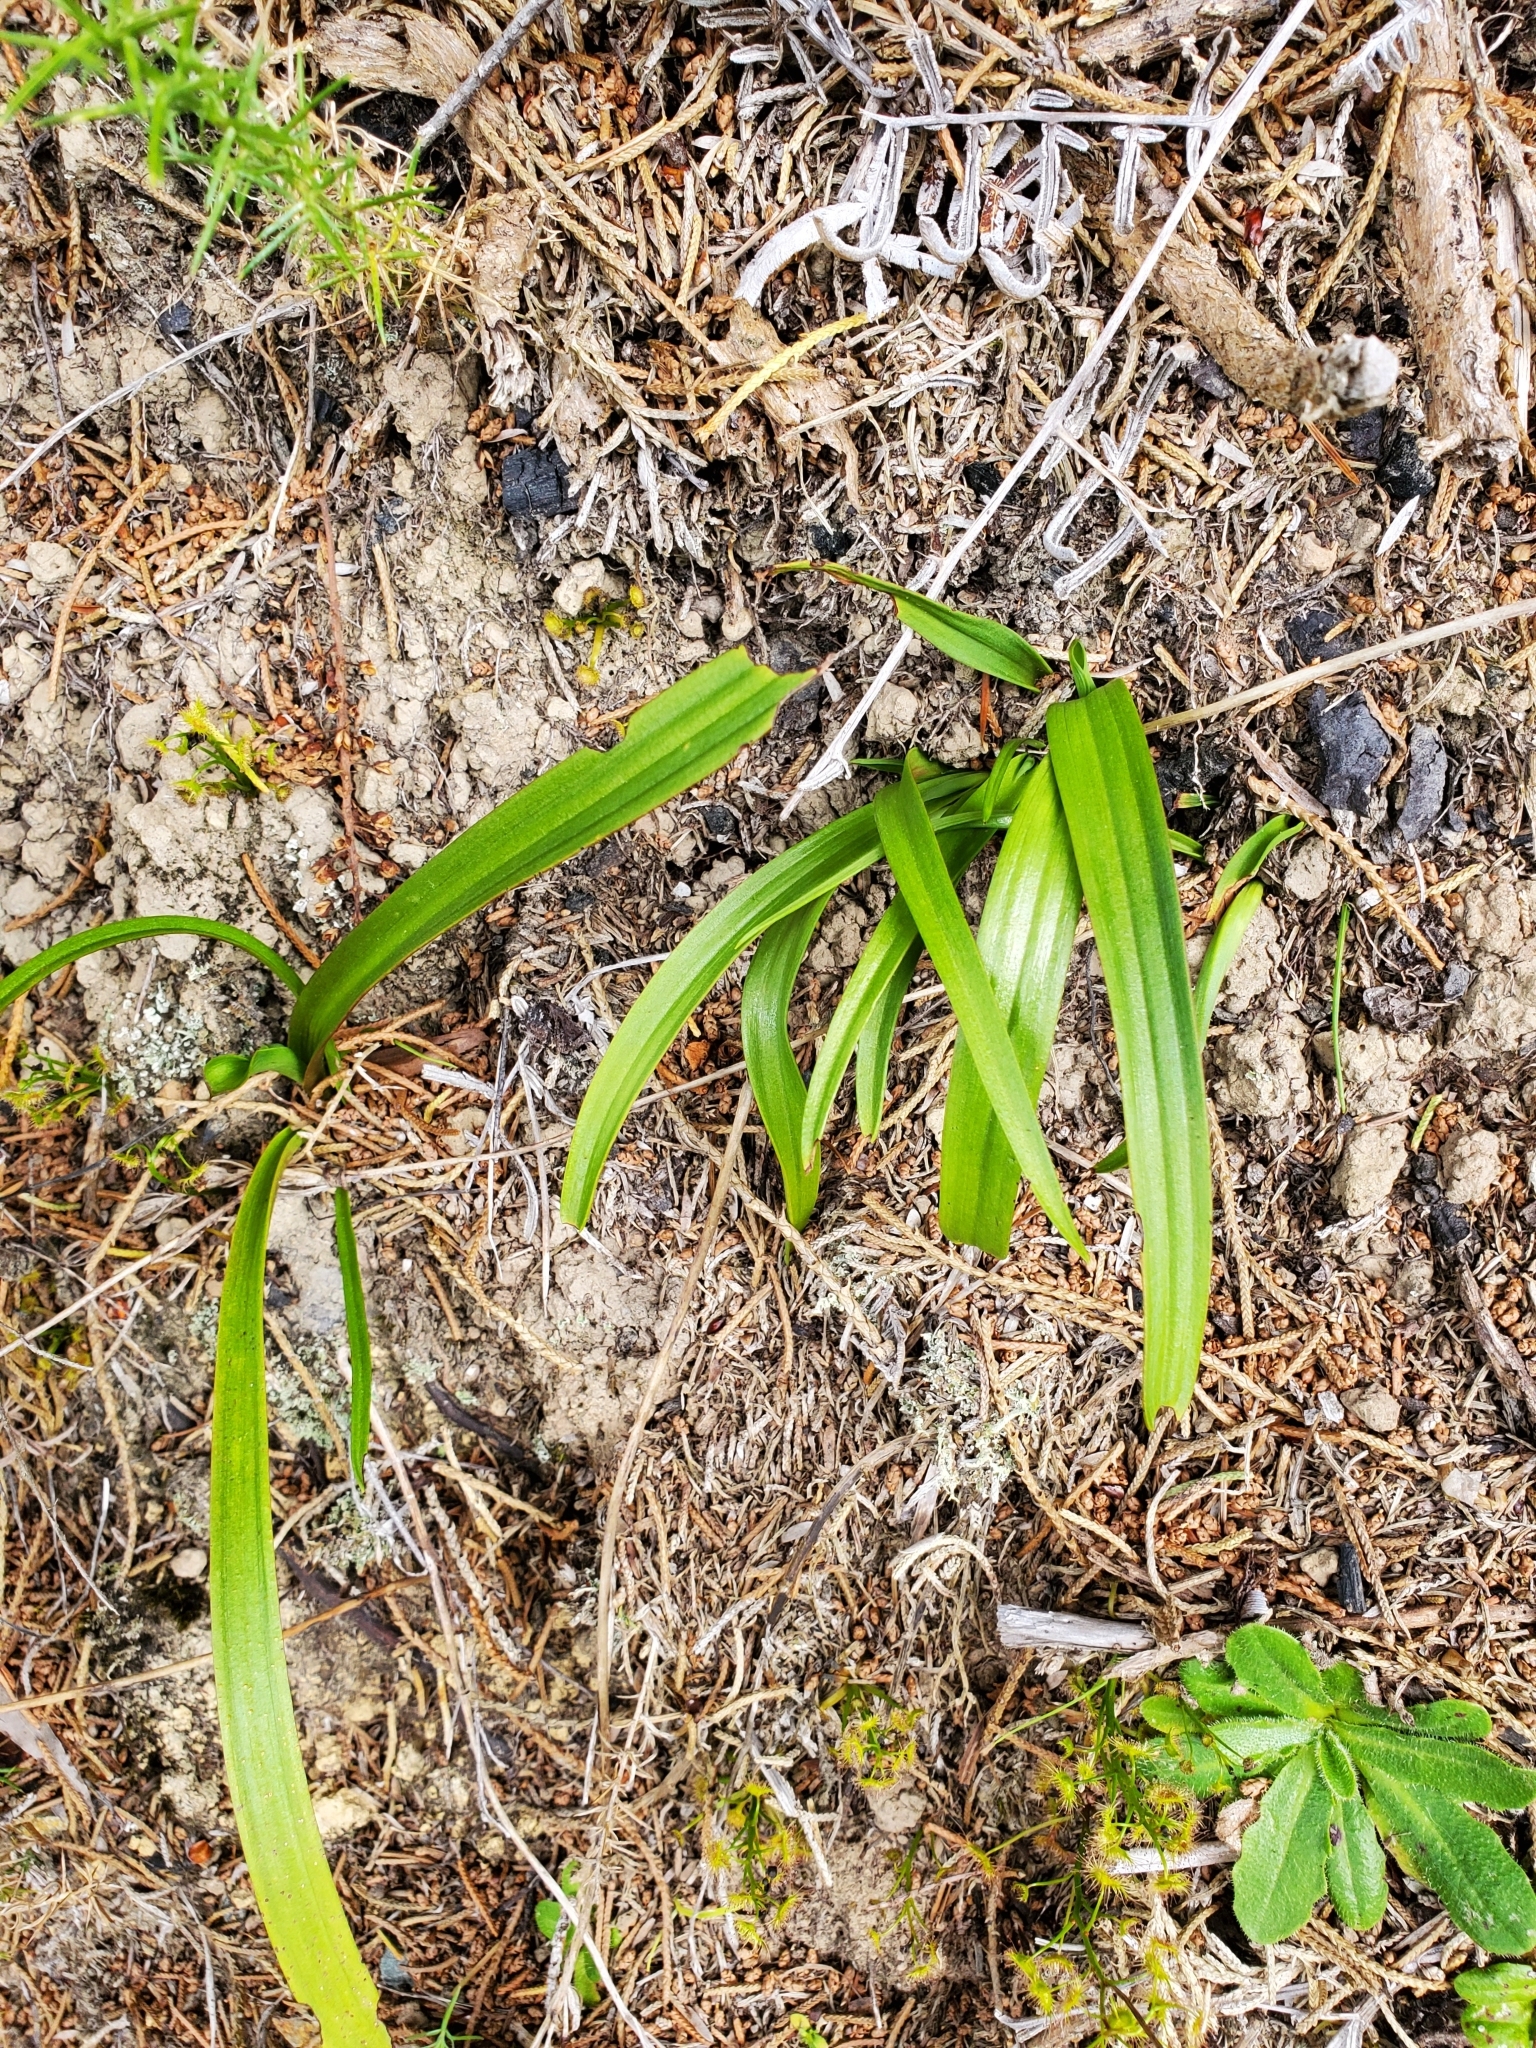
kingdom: Plantae
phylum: Tracheophyta
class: Liliopsida
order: Asparagales
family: Orchidaceae
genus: Thelymitra
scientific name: Thelymitra longifolia
